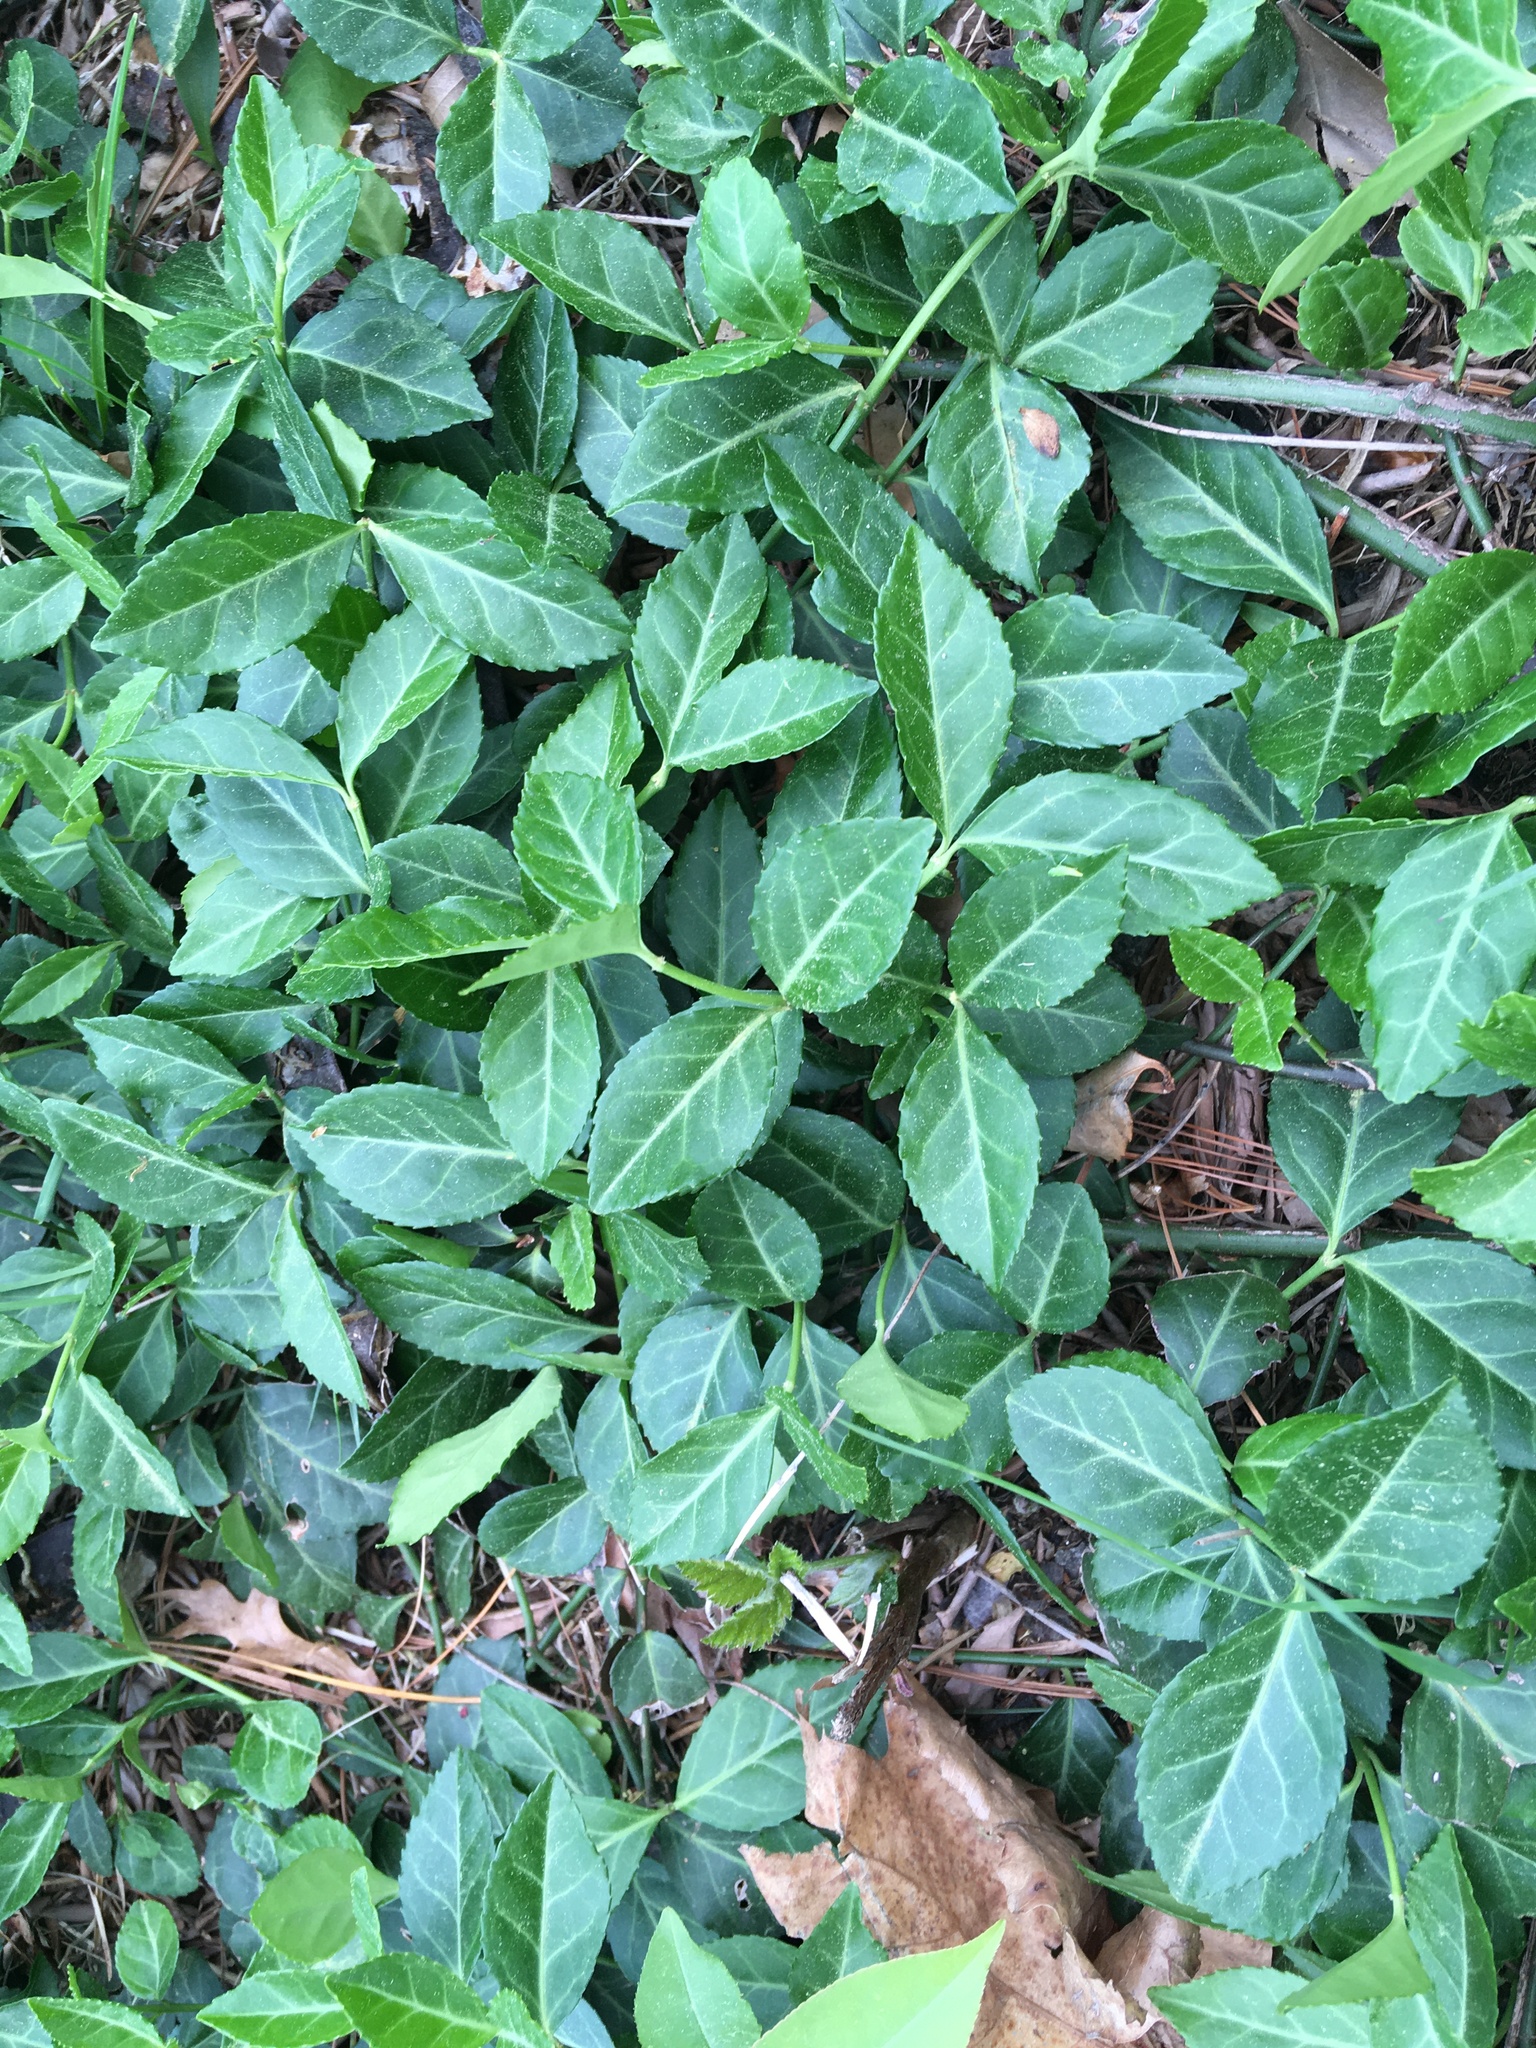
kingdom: Plantae
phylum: Tracheophyta
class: Magnoliopsida
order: Celastrales
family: Celastraceae
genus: Euonymus
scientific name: Euonymus fortunei
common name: Climbing euonymus
